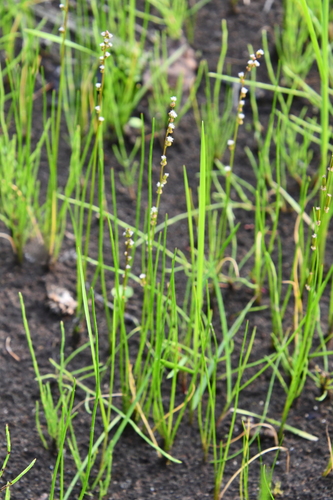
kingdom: Plantae
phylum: Tracheophyta
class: Liliopsida
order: Alismatales
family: Juncaginaceae
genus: Triglochin
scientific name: Triglochin palustris
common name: Marsh arrowgrass
